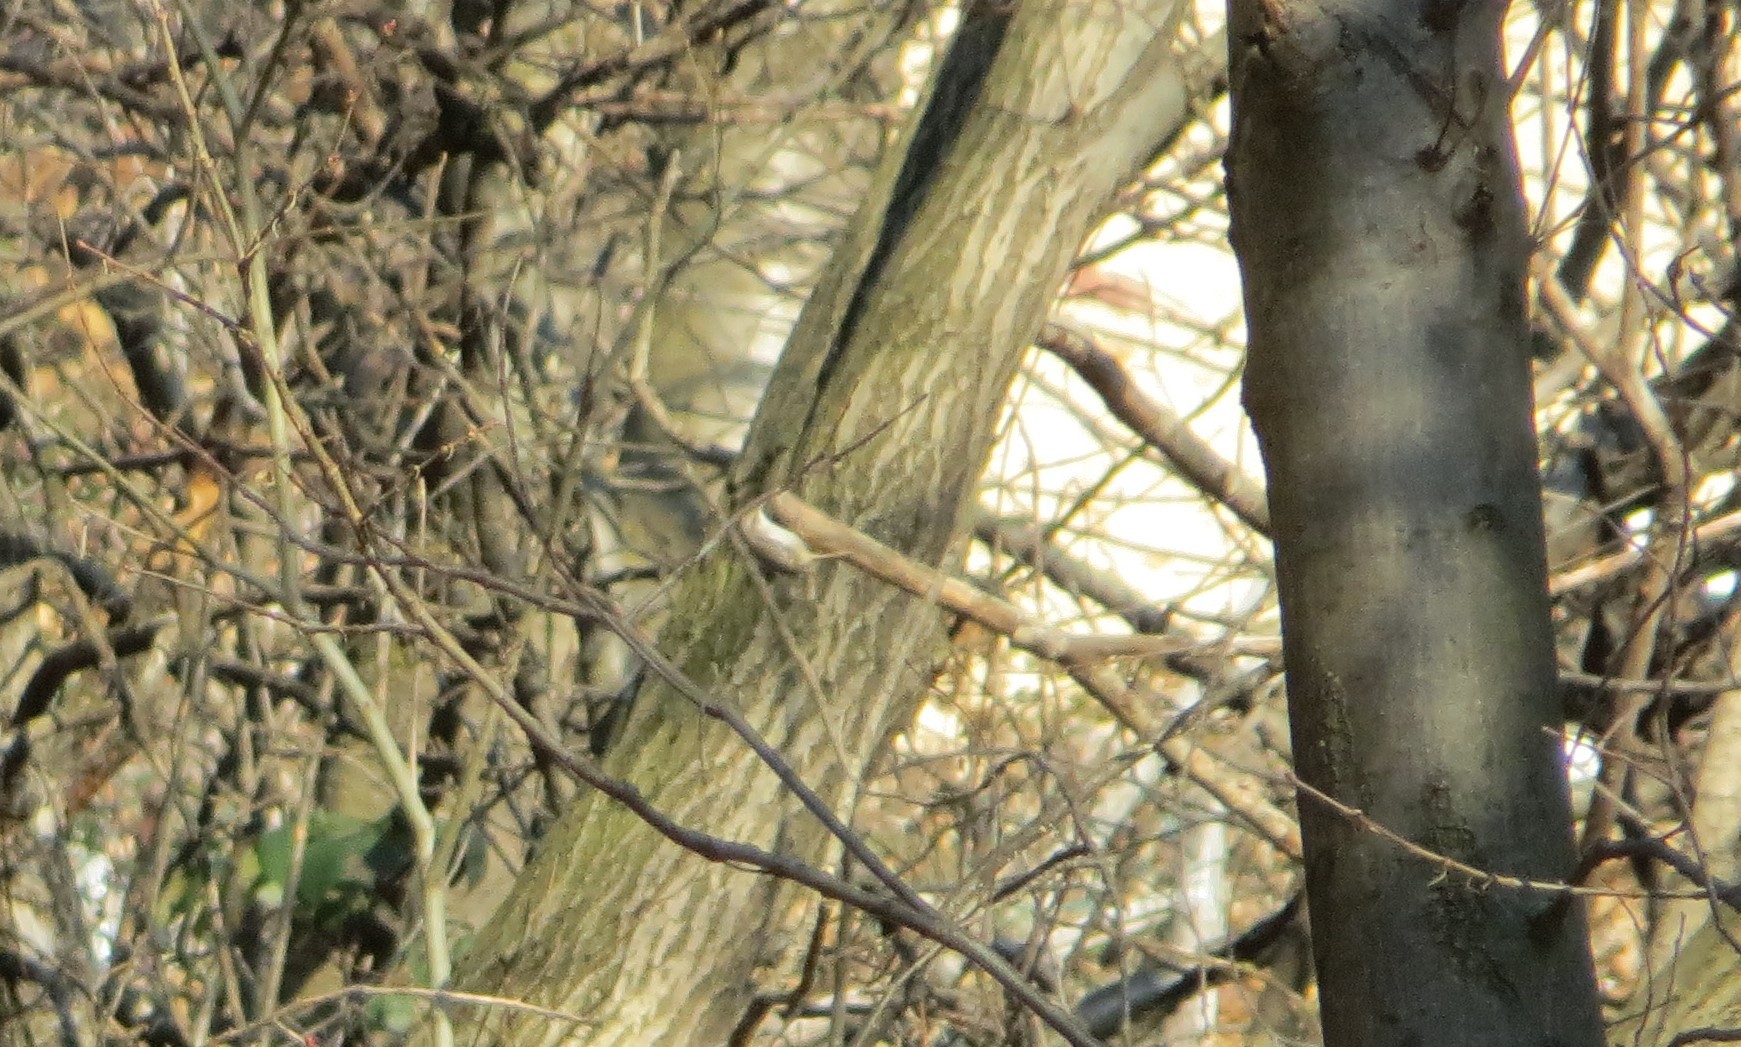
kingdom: Animalia
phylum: Chordata
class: Aves
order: Passeriformes
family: Certhiidae
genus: Certhia
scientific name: Certhia brachydactyla
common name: Short-toed treecreeper
